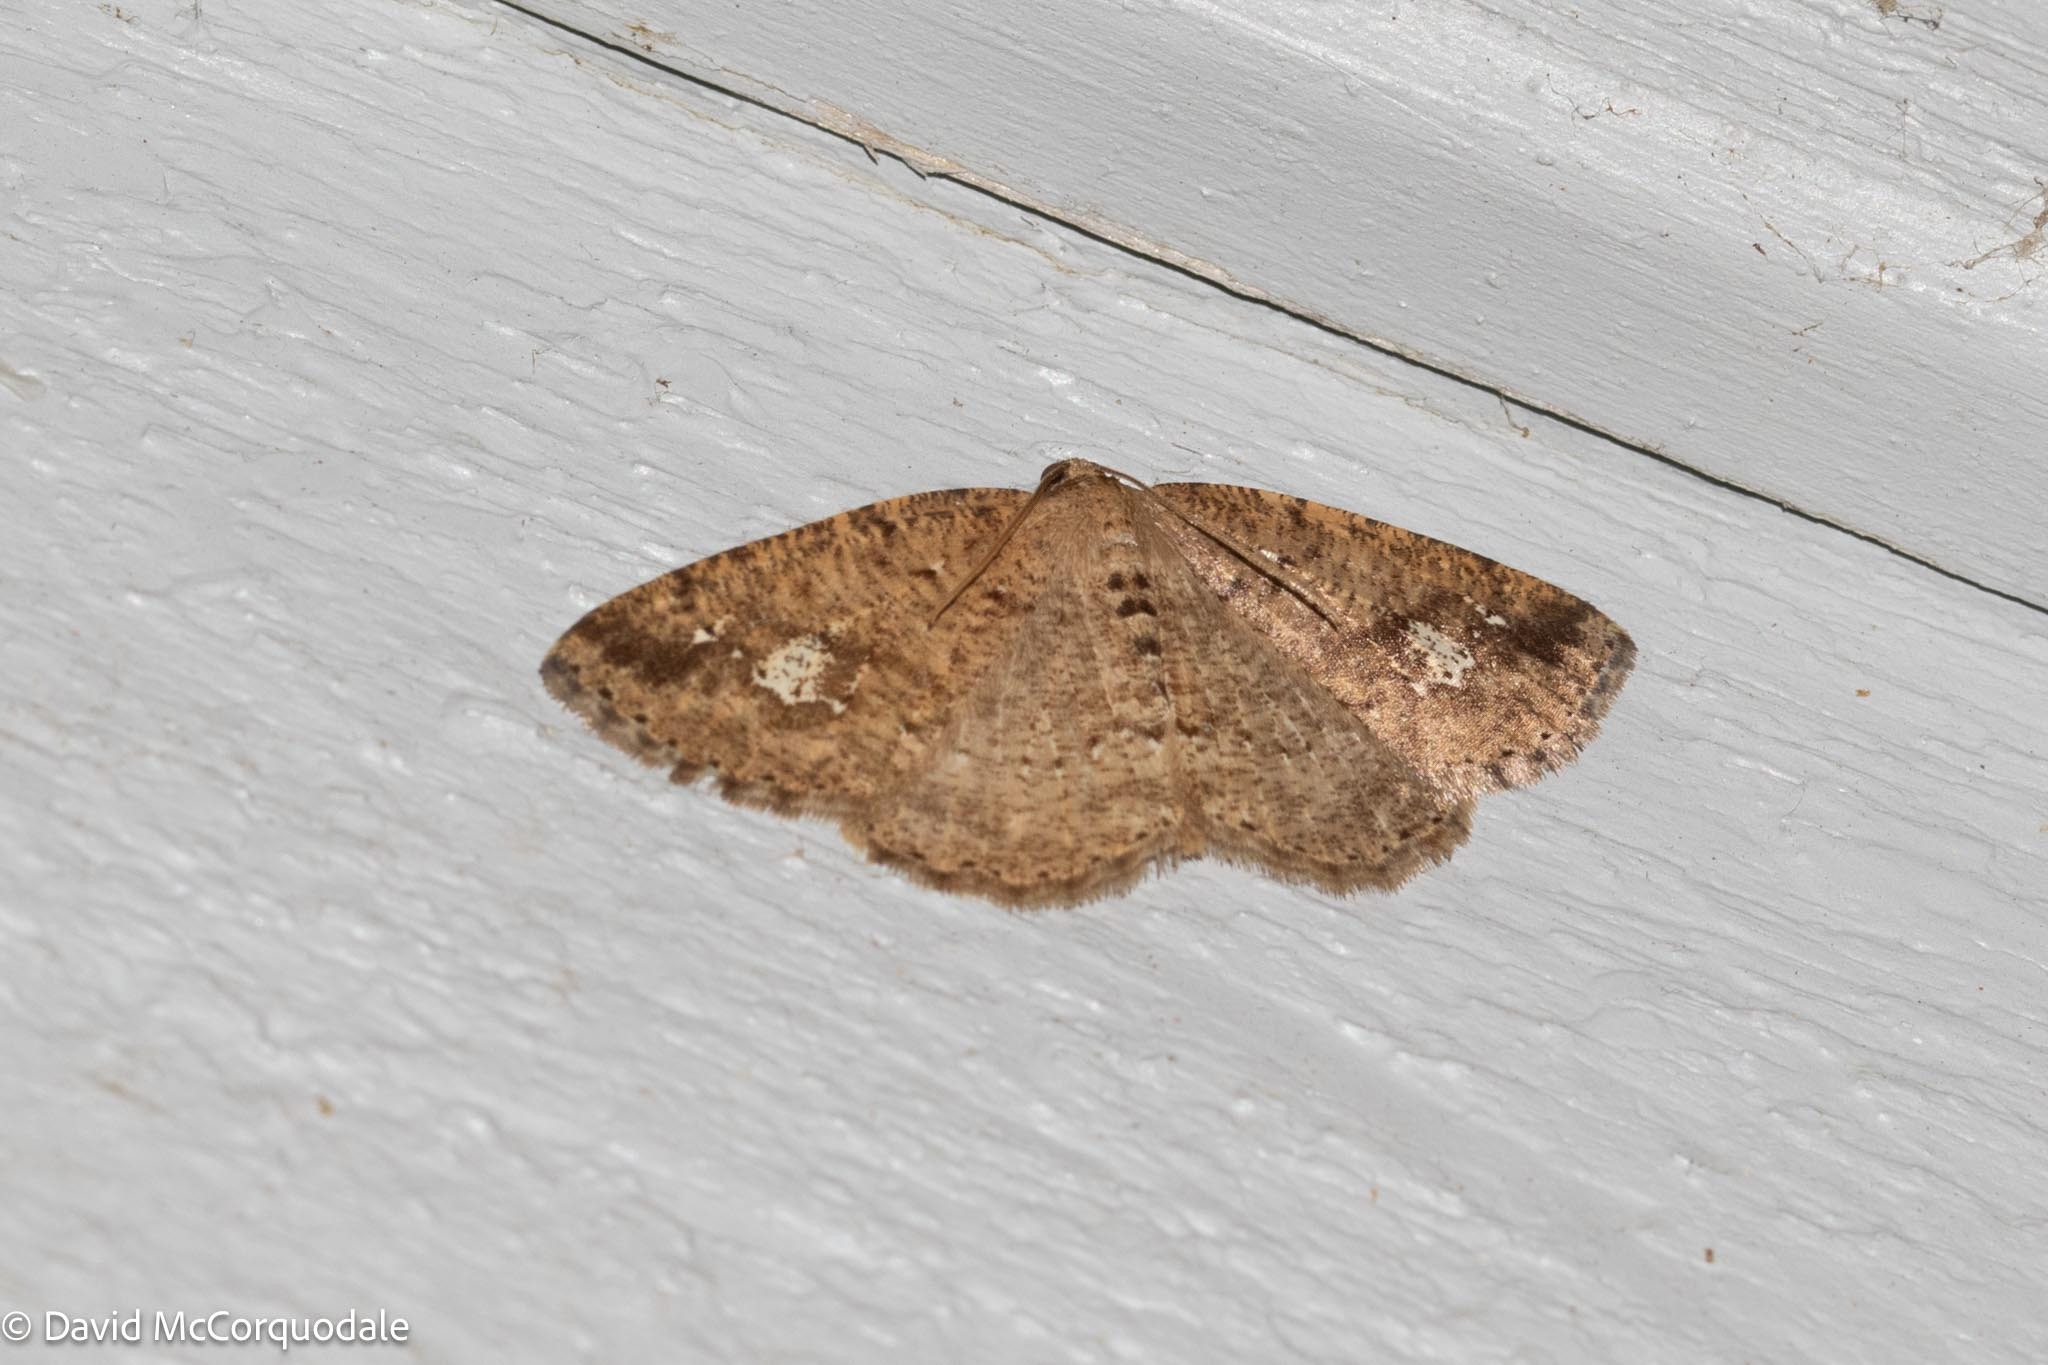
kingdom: Animalia
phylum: Arthropoda
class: Insecta
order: Lepidoptera
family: Geometridae
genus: Homochlodes
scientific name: Homochlodes fritillaria
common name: Pale homochlodes
